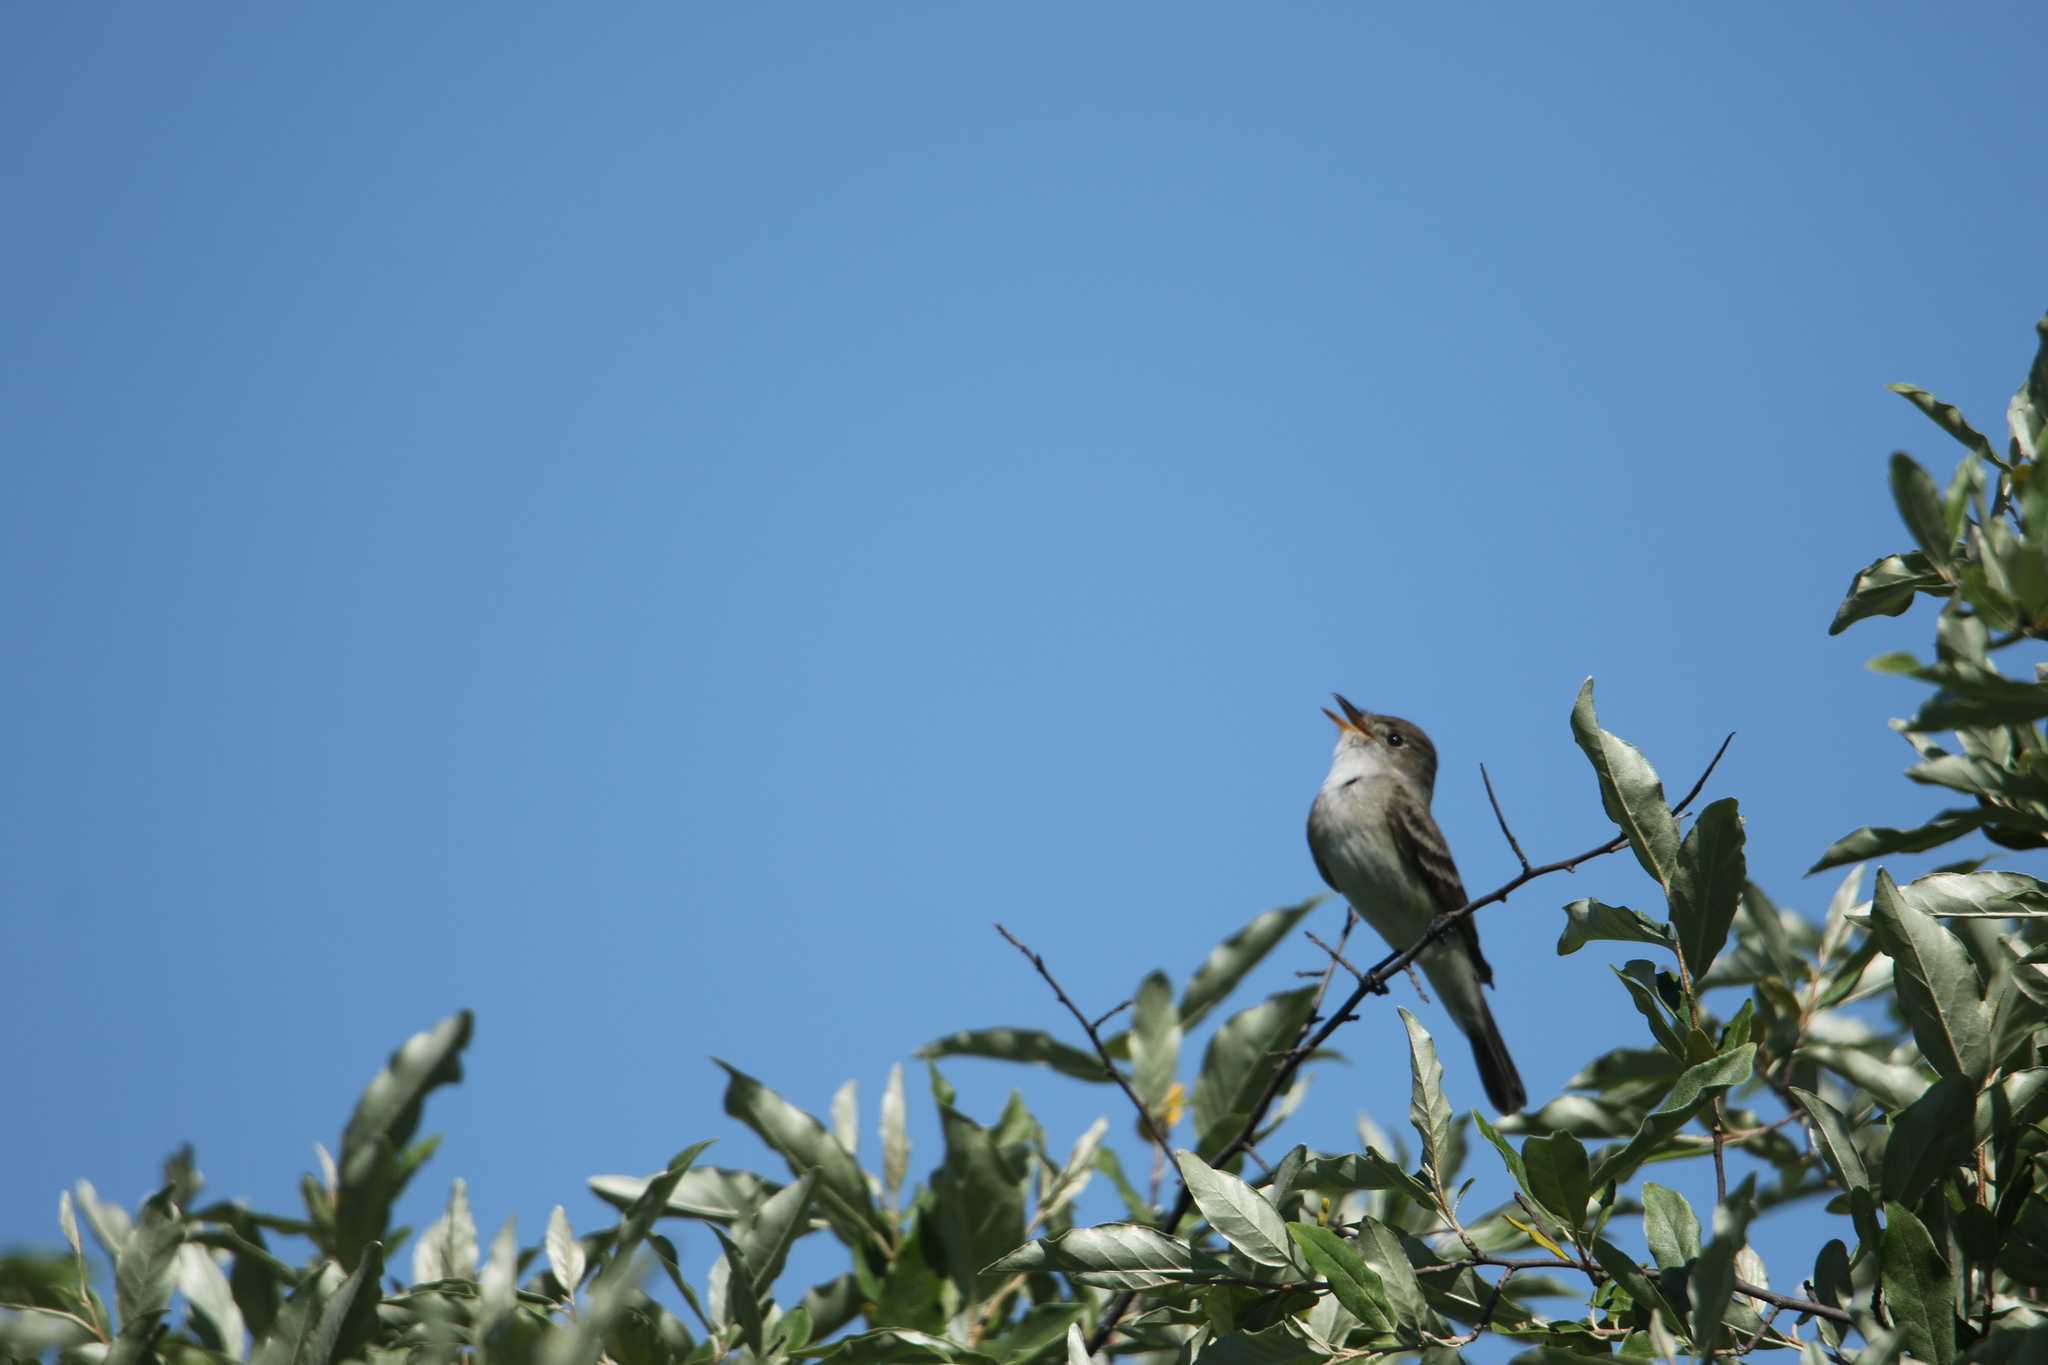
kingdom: Animalia
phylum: Chordata
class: Aves
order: Passeriformes
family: Tyrannidae
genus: Empidonax
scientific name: Empidonax traillii
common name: Willow flycatcher
